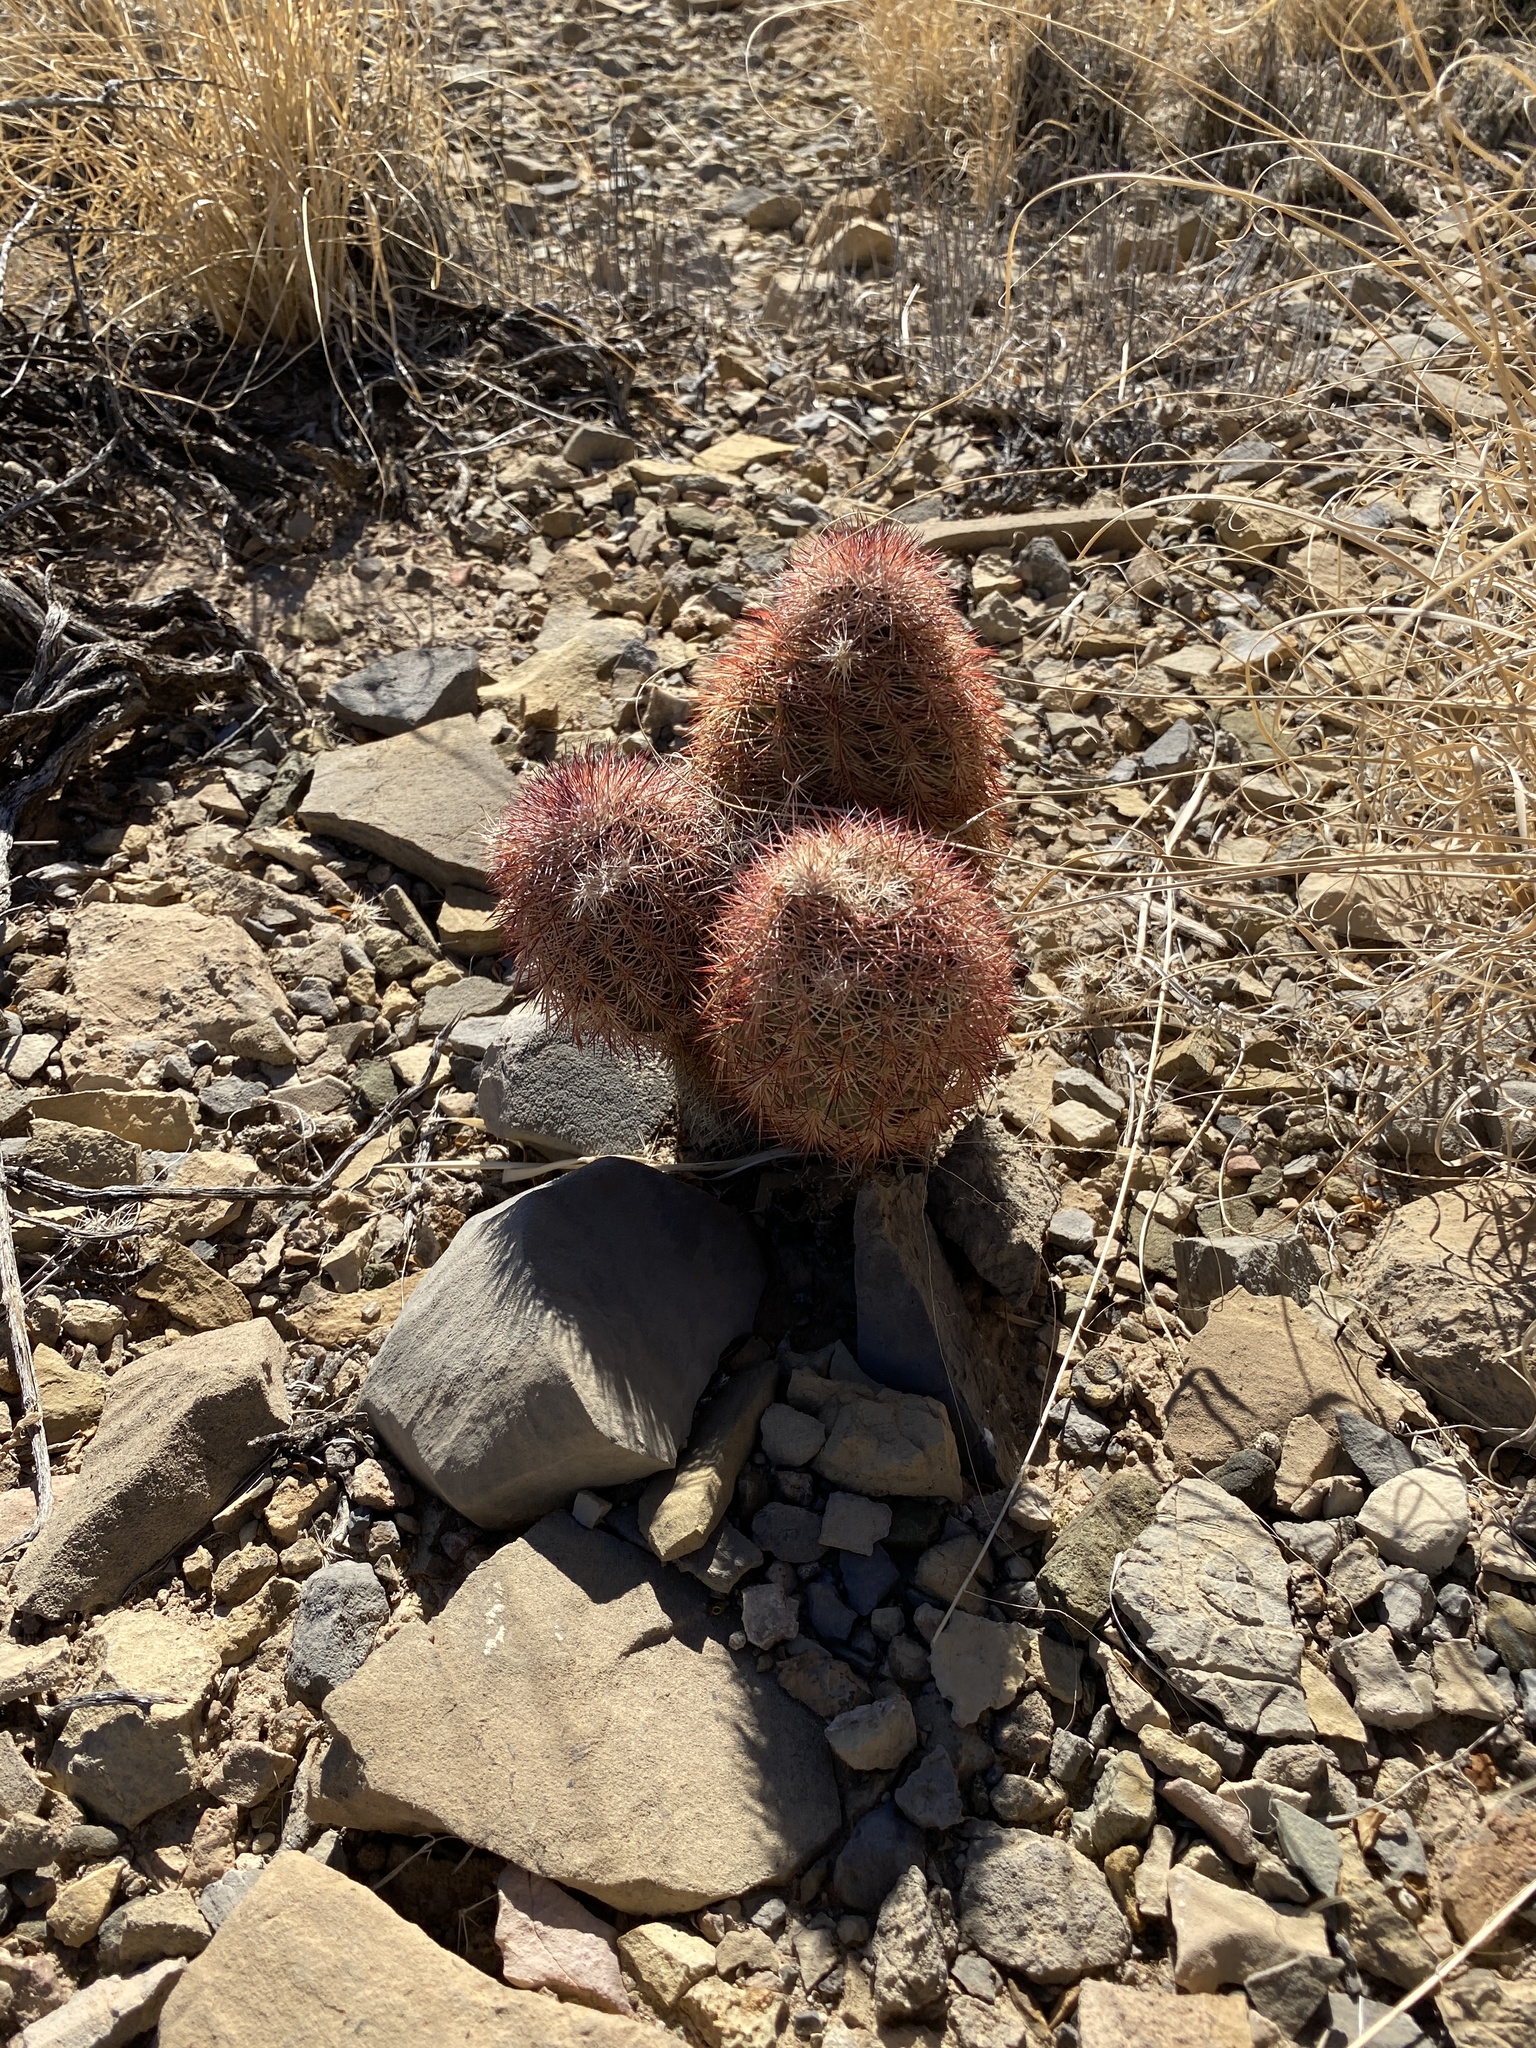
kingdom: Plantae
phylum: Tracheophyta
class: Magnoliopsida
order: Caryophyllales
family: Cactaceae
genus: Echinocereus
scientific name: Echinocereus dasyacanthus
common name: Spiny hedgehog cactus
